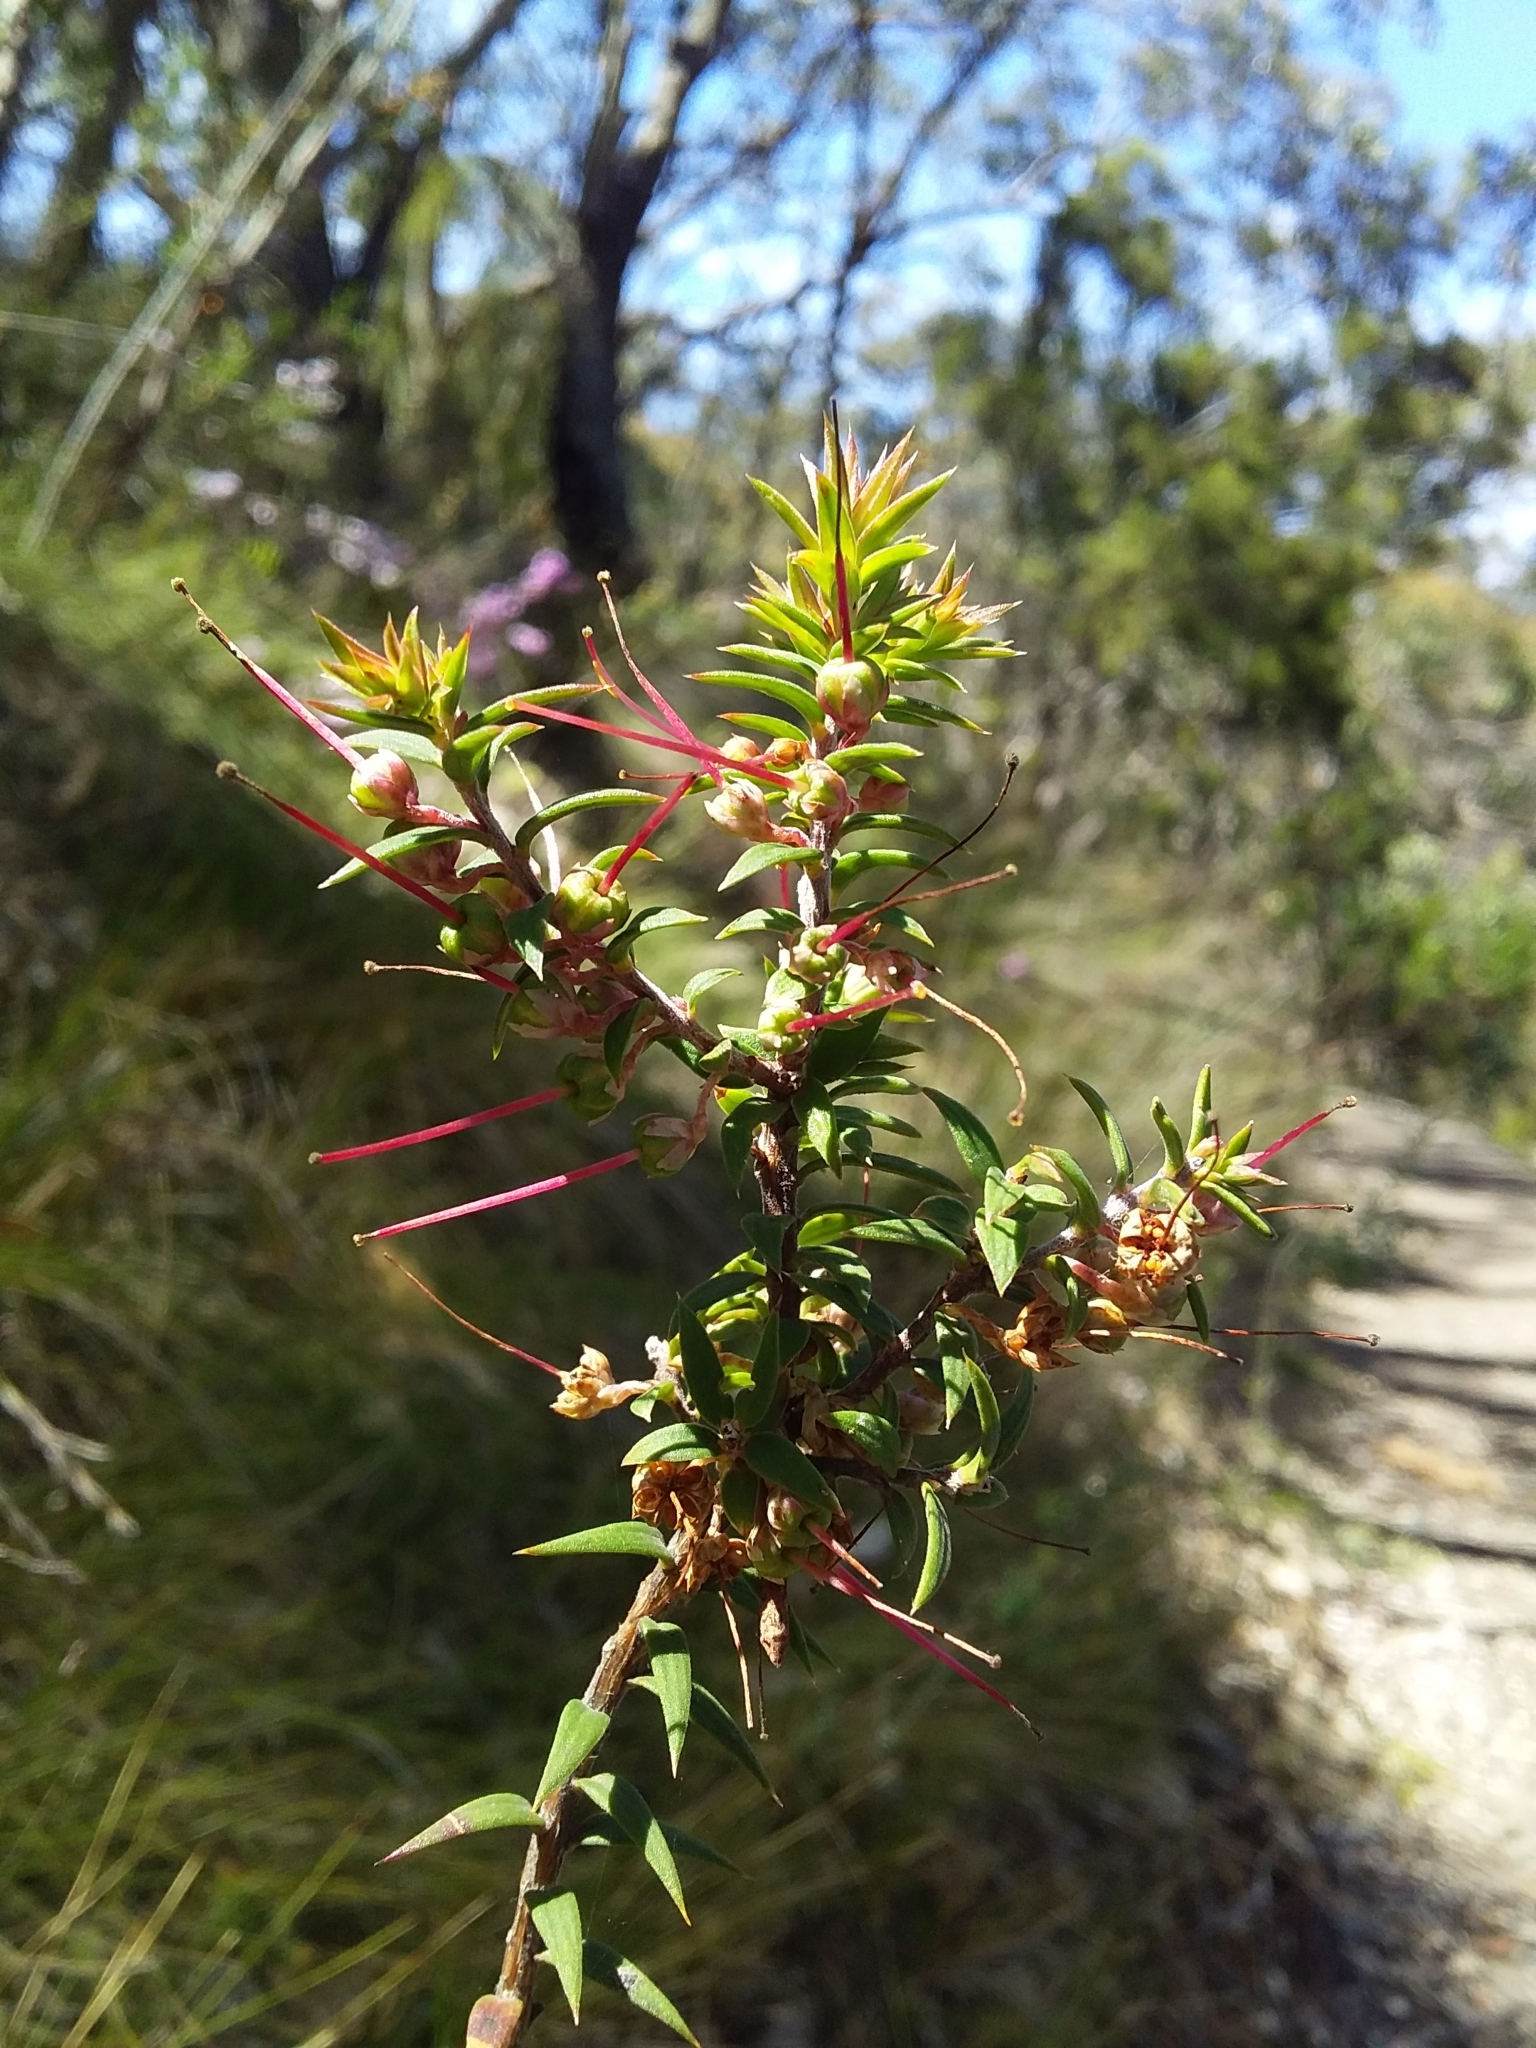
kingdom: Plantae
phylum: Tracheophyta
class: Magnoliopsida
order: Ericales
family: Ericaceae
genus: Epacris
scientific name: Epacris impressa
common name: Common-heath
